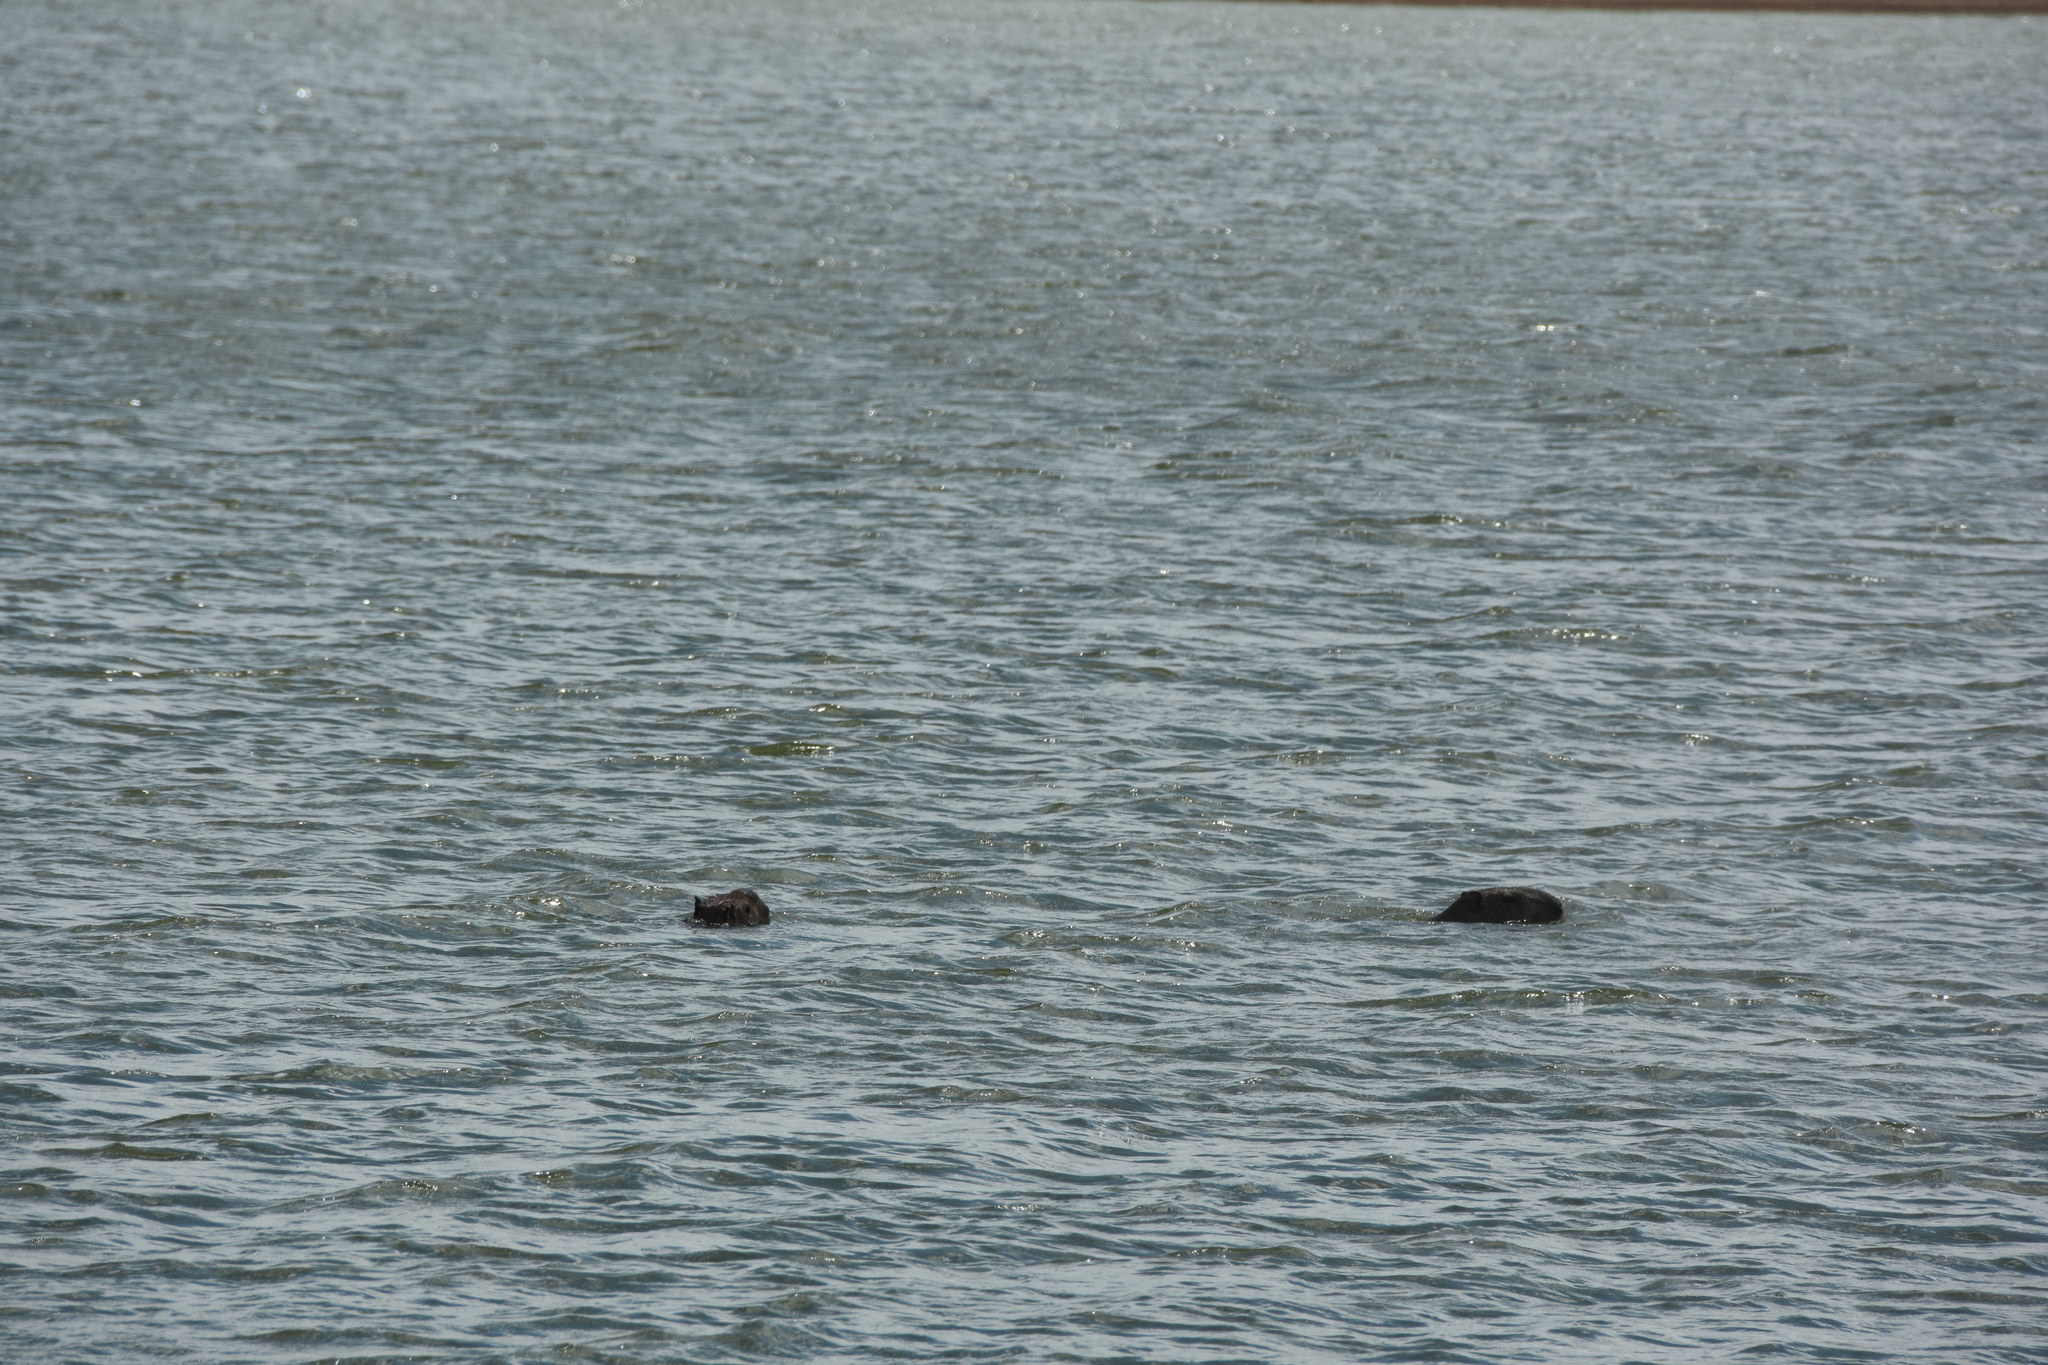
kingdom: Animalia
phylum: Chordata
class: Mammalia
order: Rodentia
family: Caviidae
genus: Hydrochoerus
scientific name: Hydrochoerus hydrochaeris
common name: Capybara
